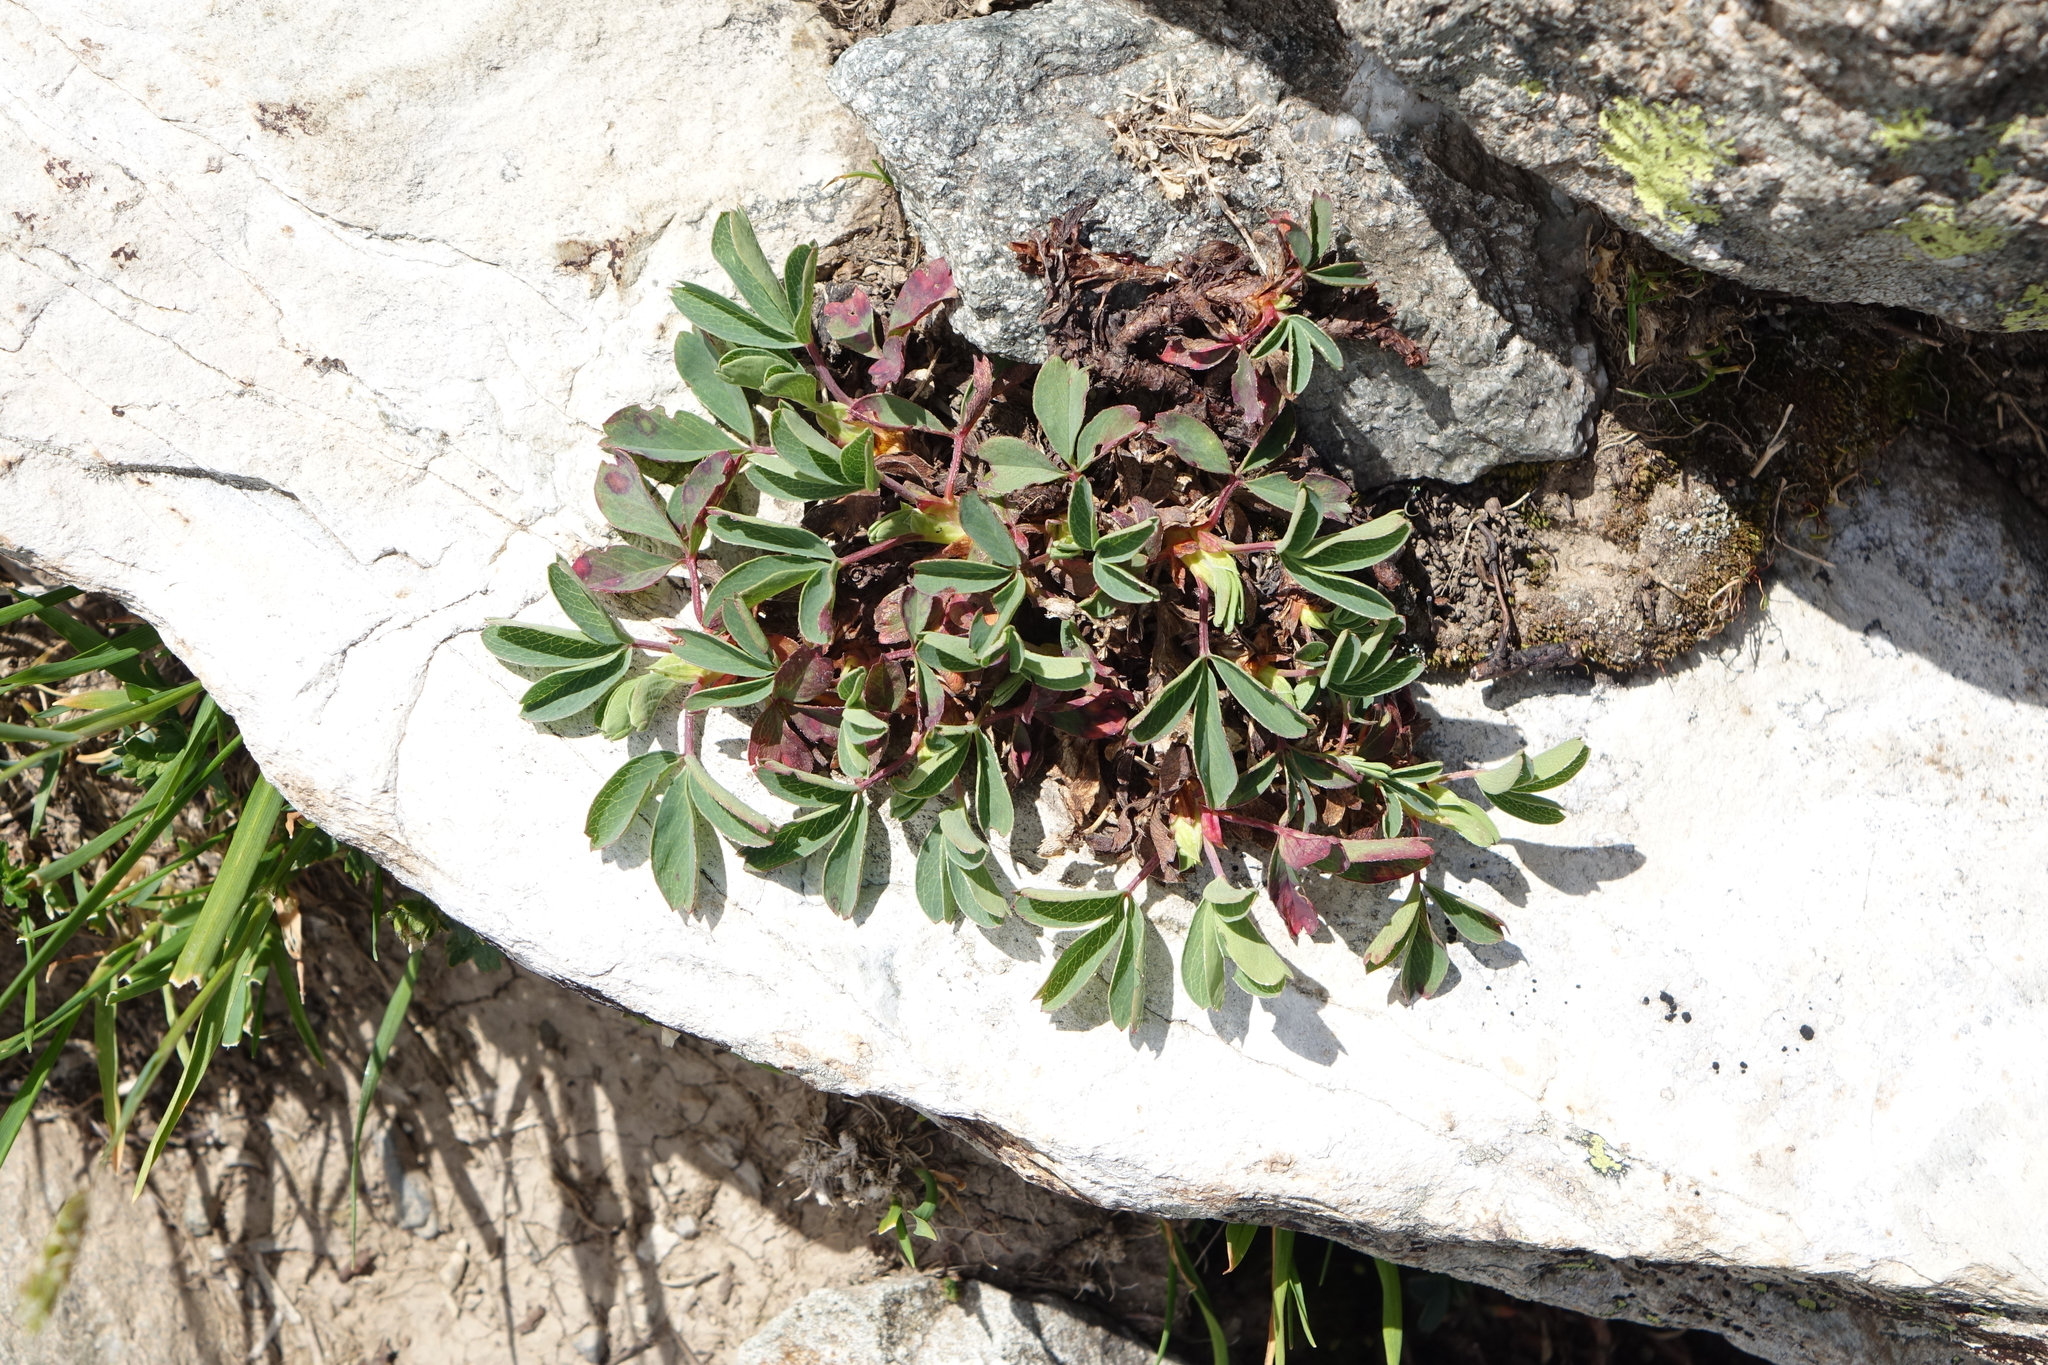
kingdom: Plantae
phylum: Tracheophyta
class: Magnoliopsida
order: Rosales
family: Rosaceae
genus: Sibbaldia
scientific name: Sibbaldia parviflora
